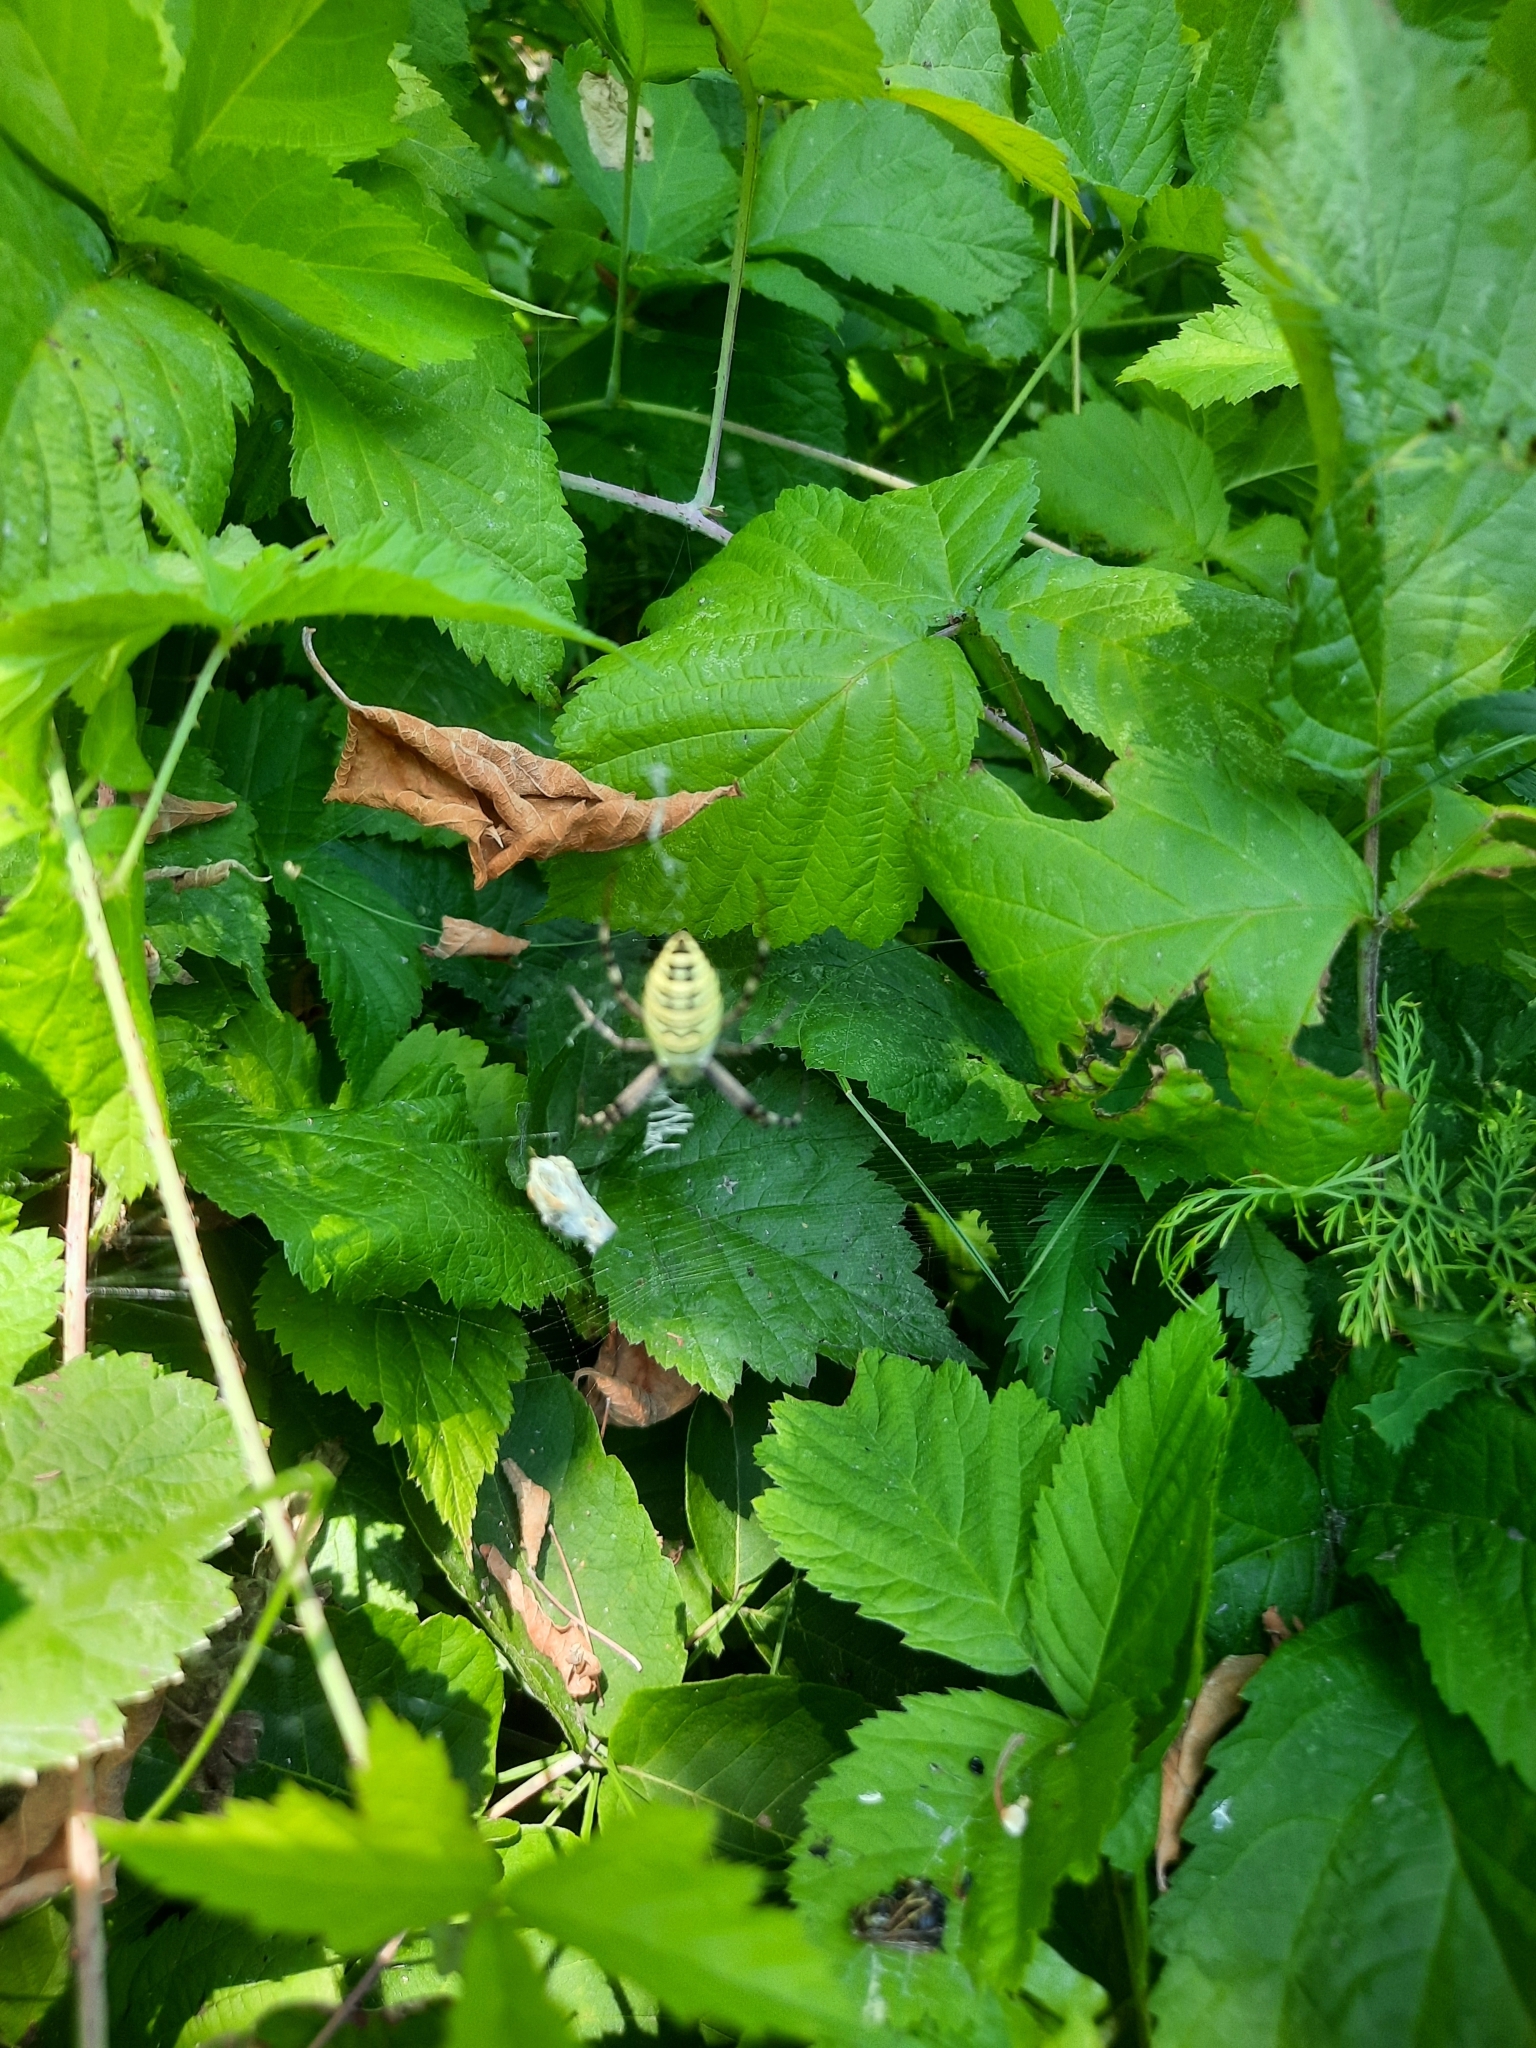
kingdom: Animalia
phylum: Arthropoda
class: Arachnida
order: Araneae
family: Araneidae
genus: Argiope
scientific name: Argiope bruennichi
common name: Wasp spider
